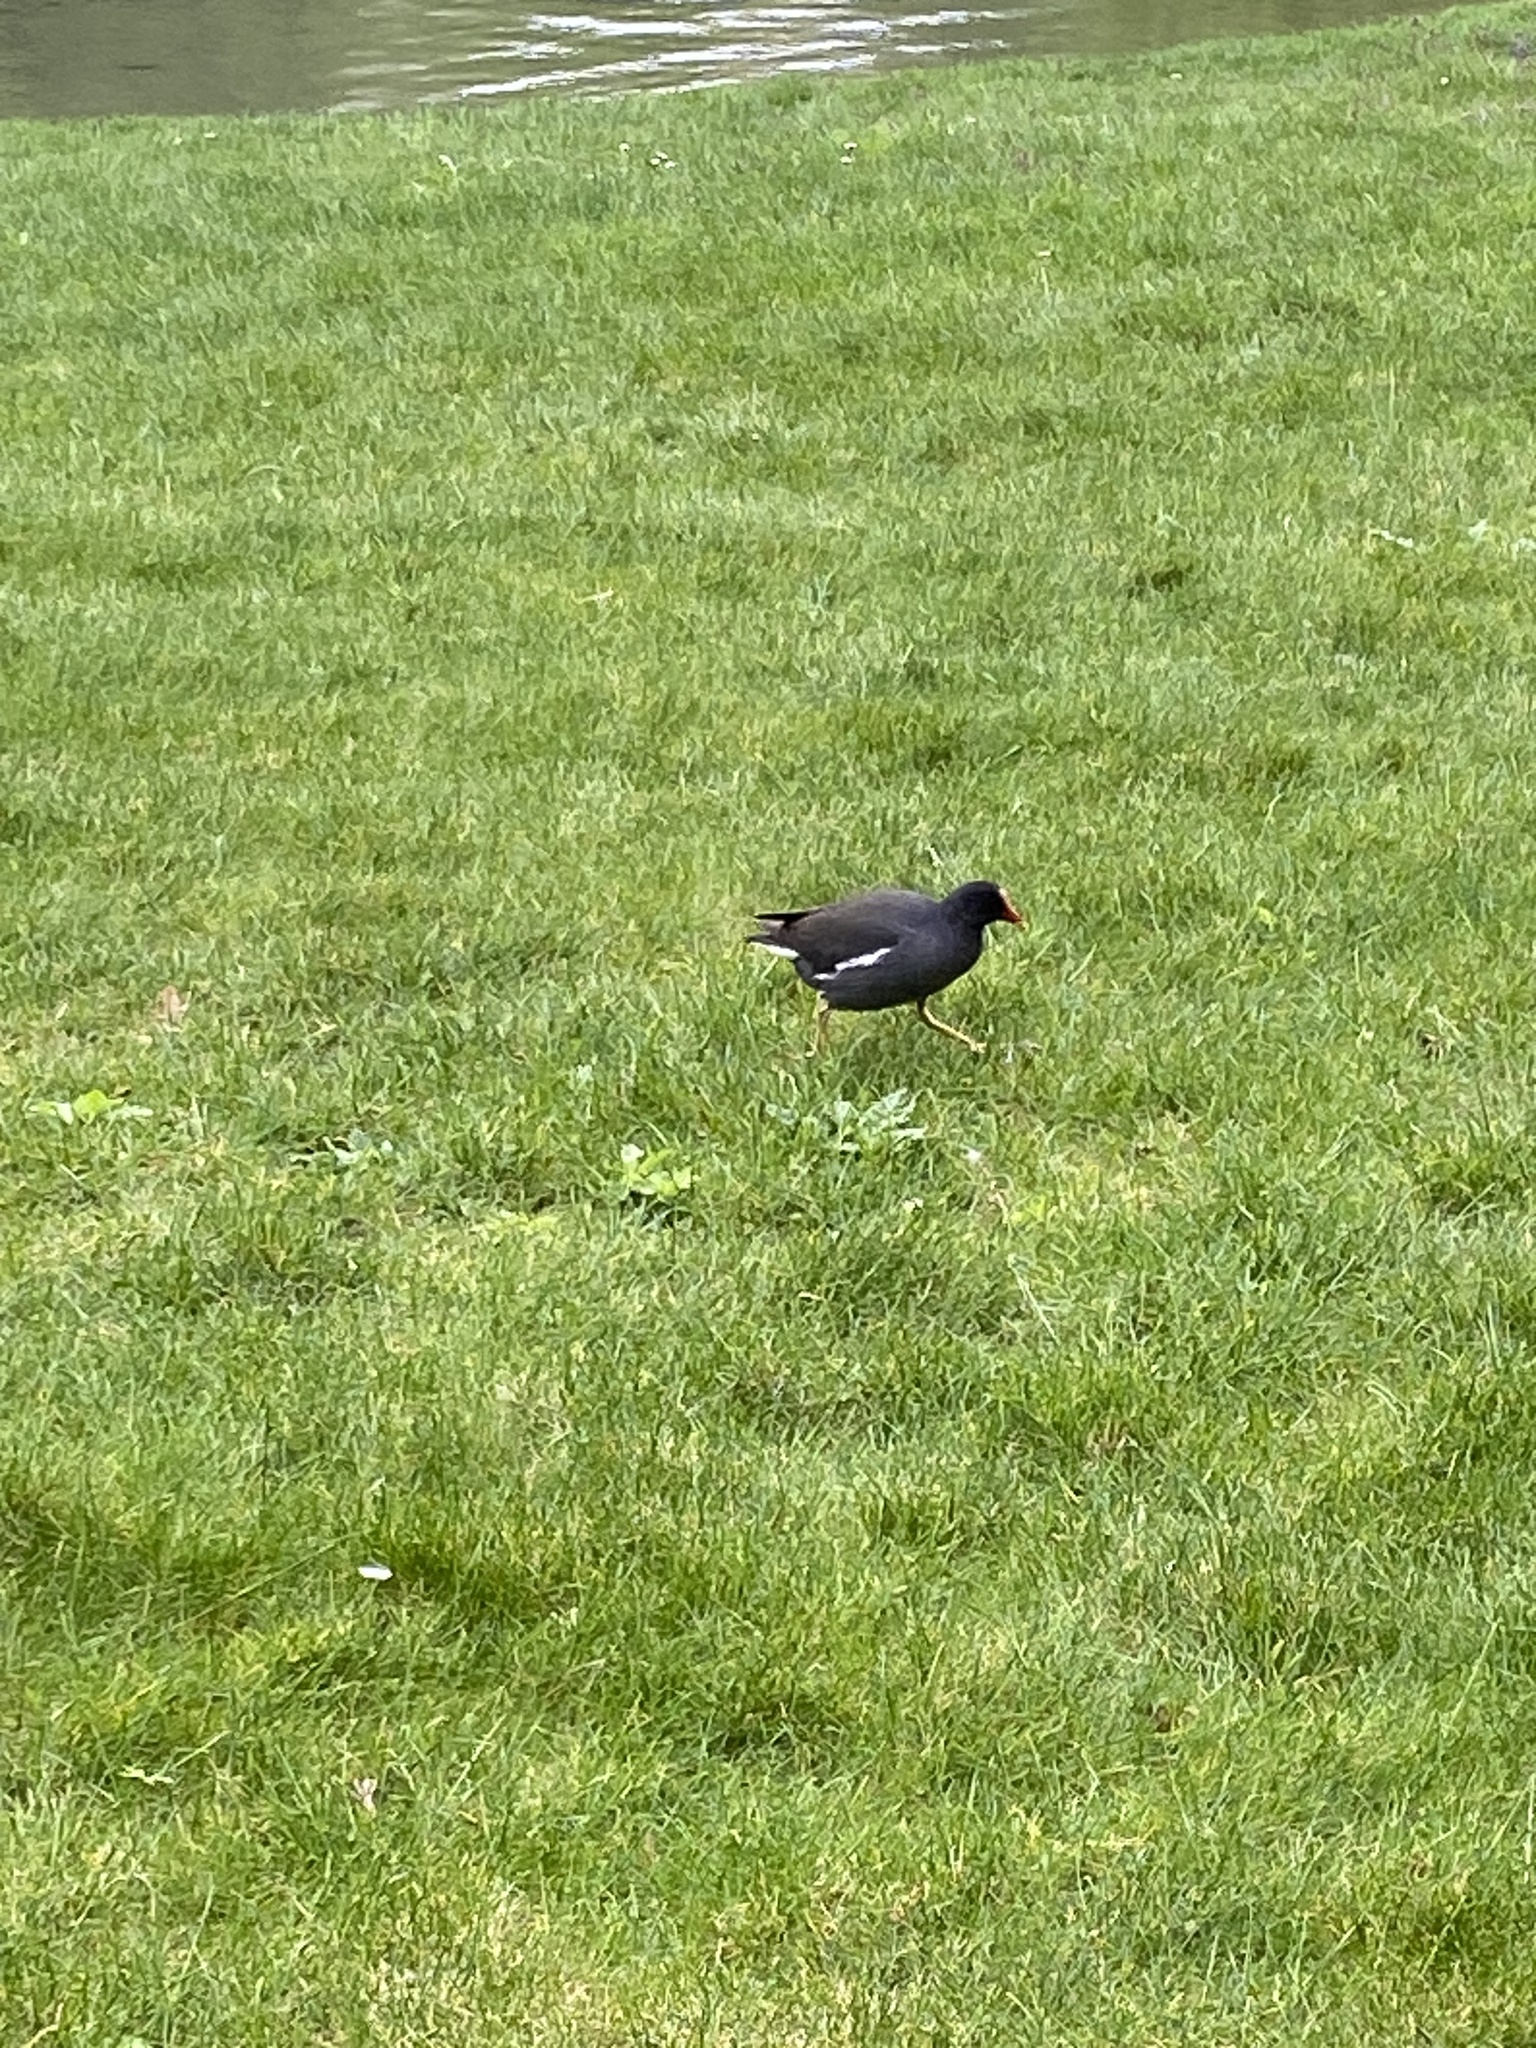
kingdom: Animalia
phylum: Chordata
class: Aves
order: Gruiformes
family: Rallidae
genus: Gallinula
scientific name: Gallinula chloropus
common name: Common moorhen
